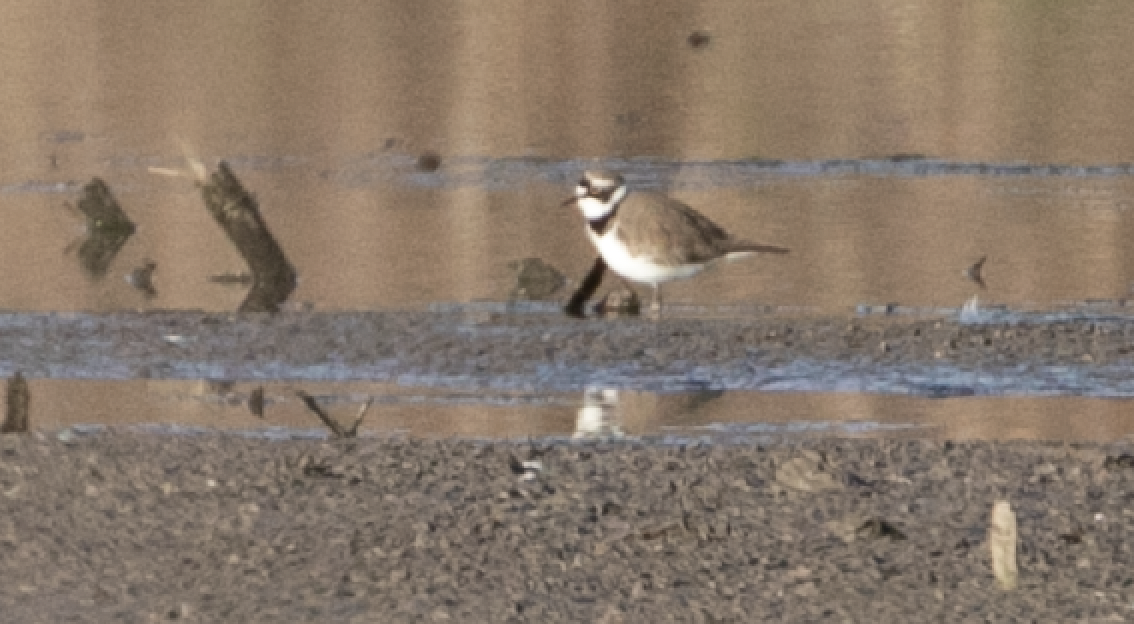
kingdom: Animalia
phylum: Chordata
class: Aves
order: Charadriiformes
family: Charadriidae
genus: Charadrius
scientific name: Charadrius dubius
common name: Little ringed plover
